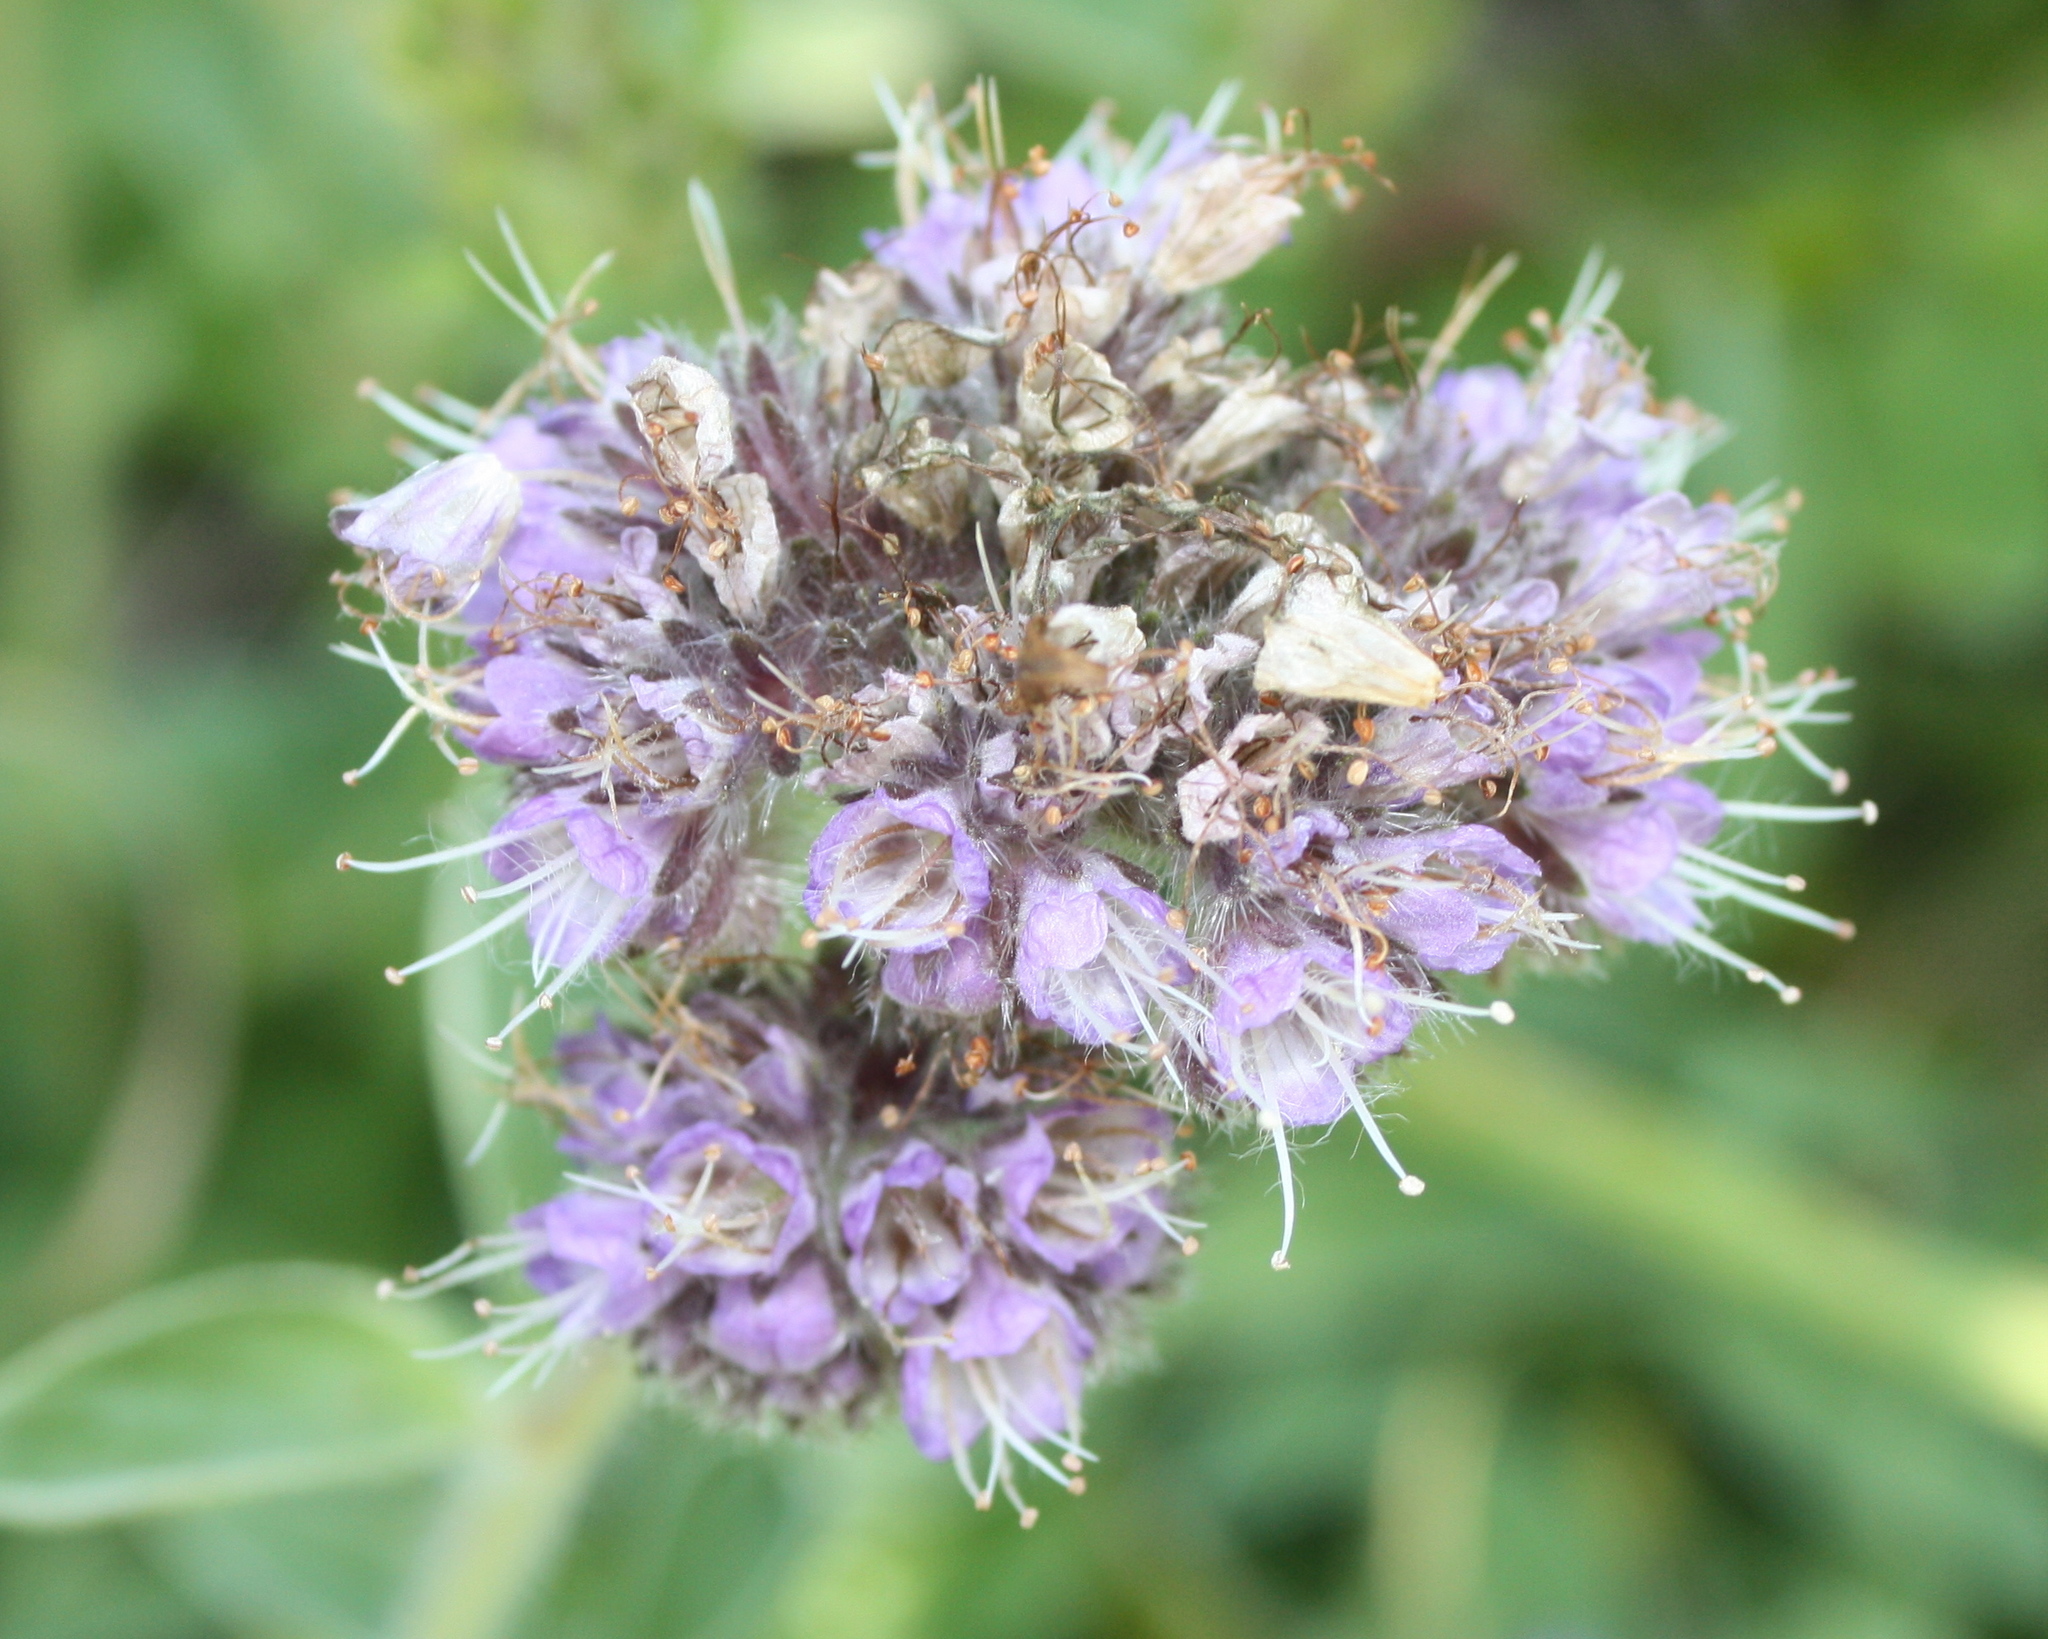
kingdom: Plantae
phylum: Tracheophyta
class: Magnoliopsida
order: Boraginales
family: Hydrophyllaceae
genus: Phacelia
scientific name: Phacelia californica
